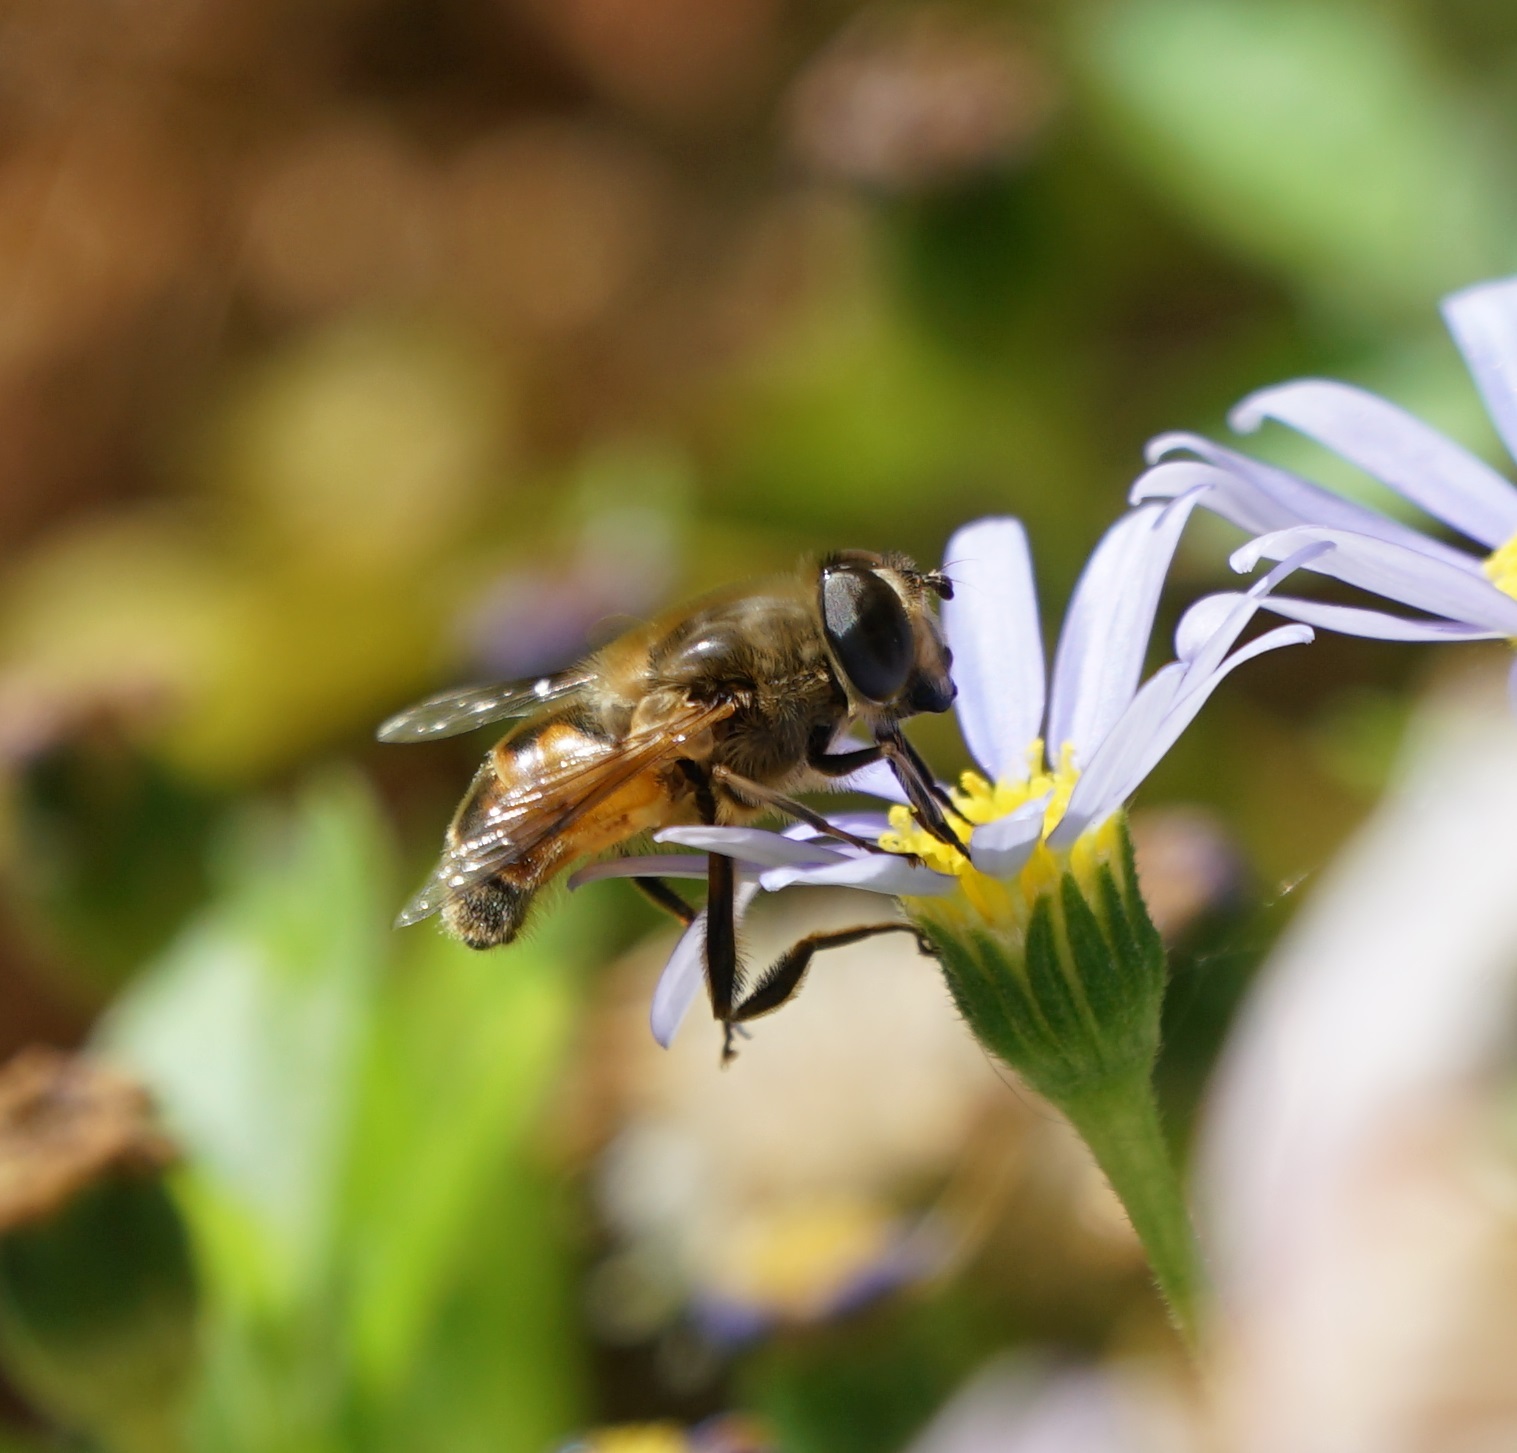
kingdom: Animalia
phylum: Arthropoda
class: Insecta
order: Diptera
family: Syrphidae
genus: Eristalis
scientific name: Eristalis tenax
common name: Drone fly
